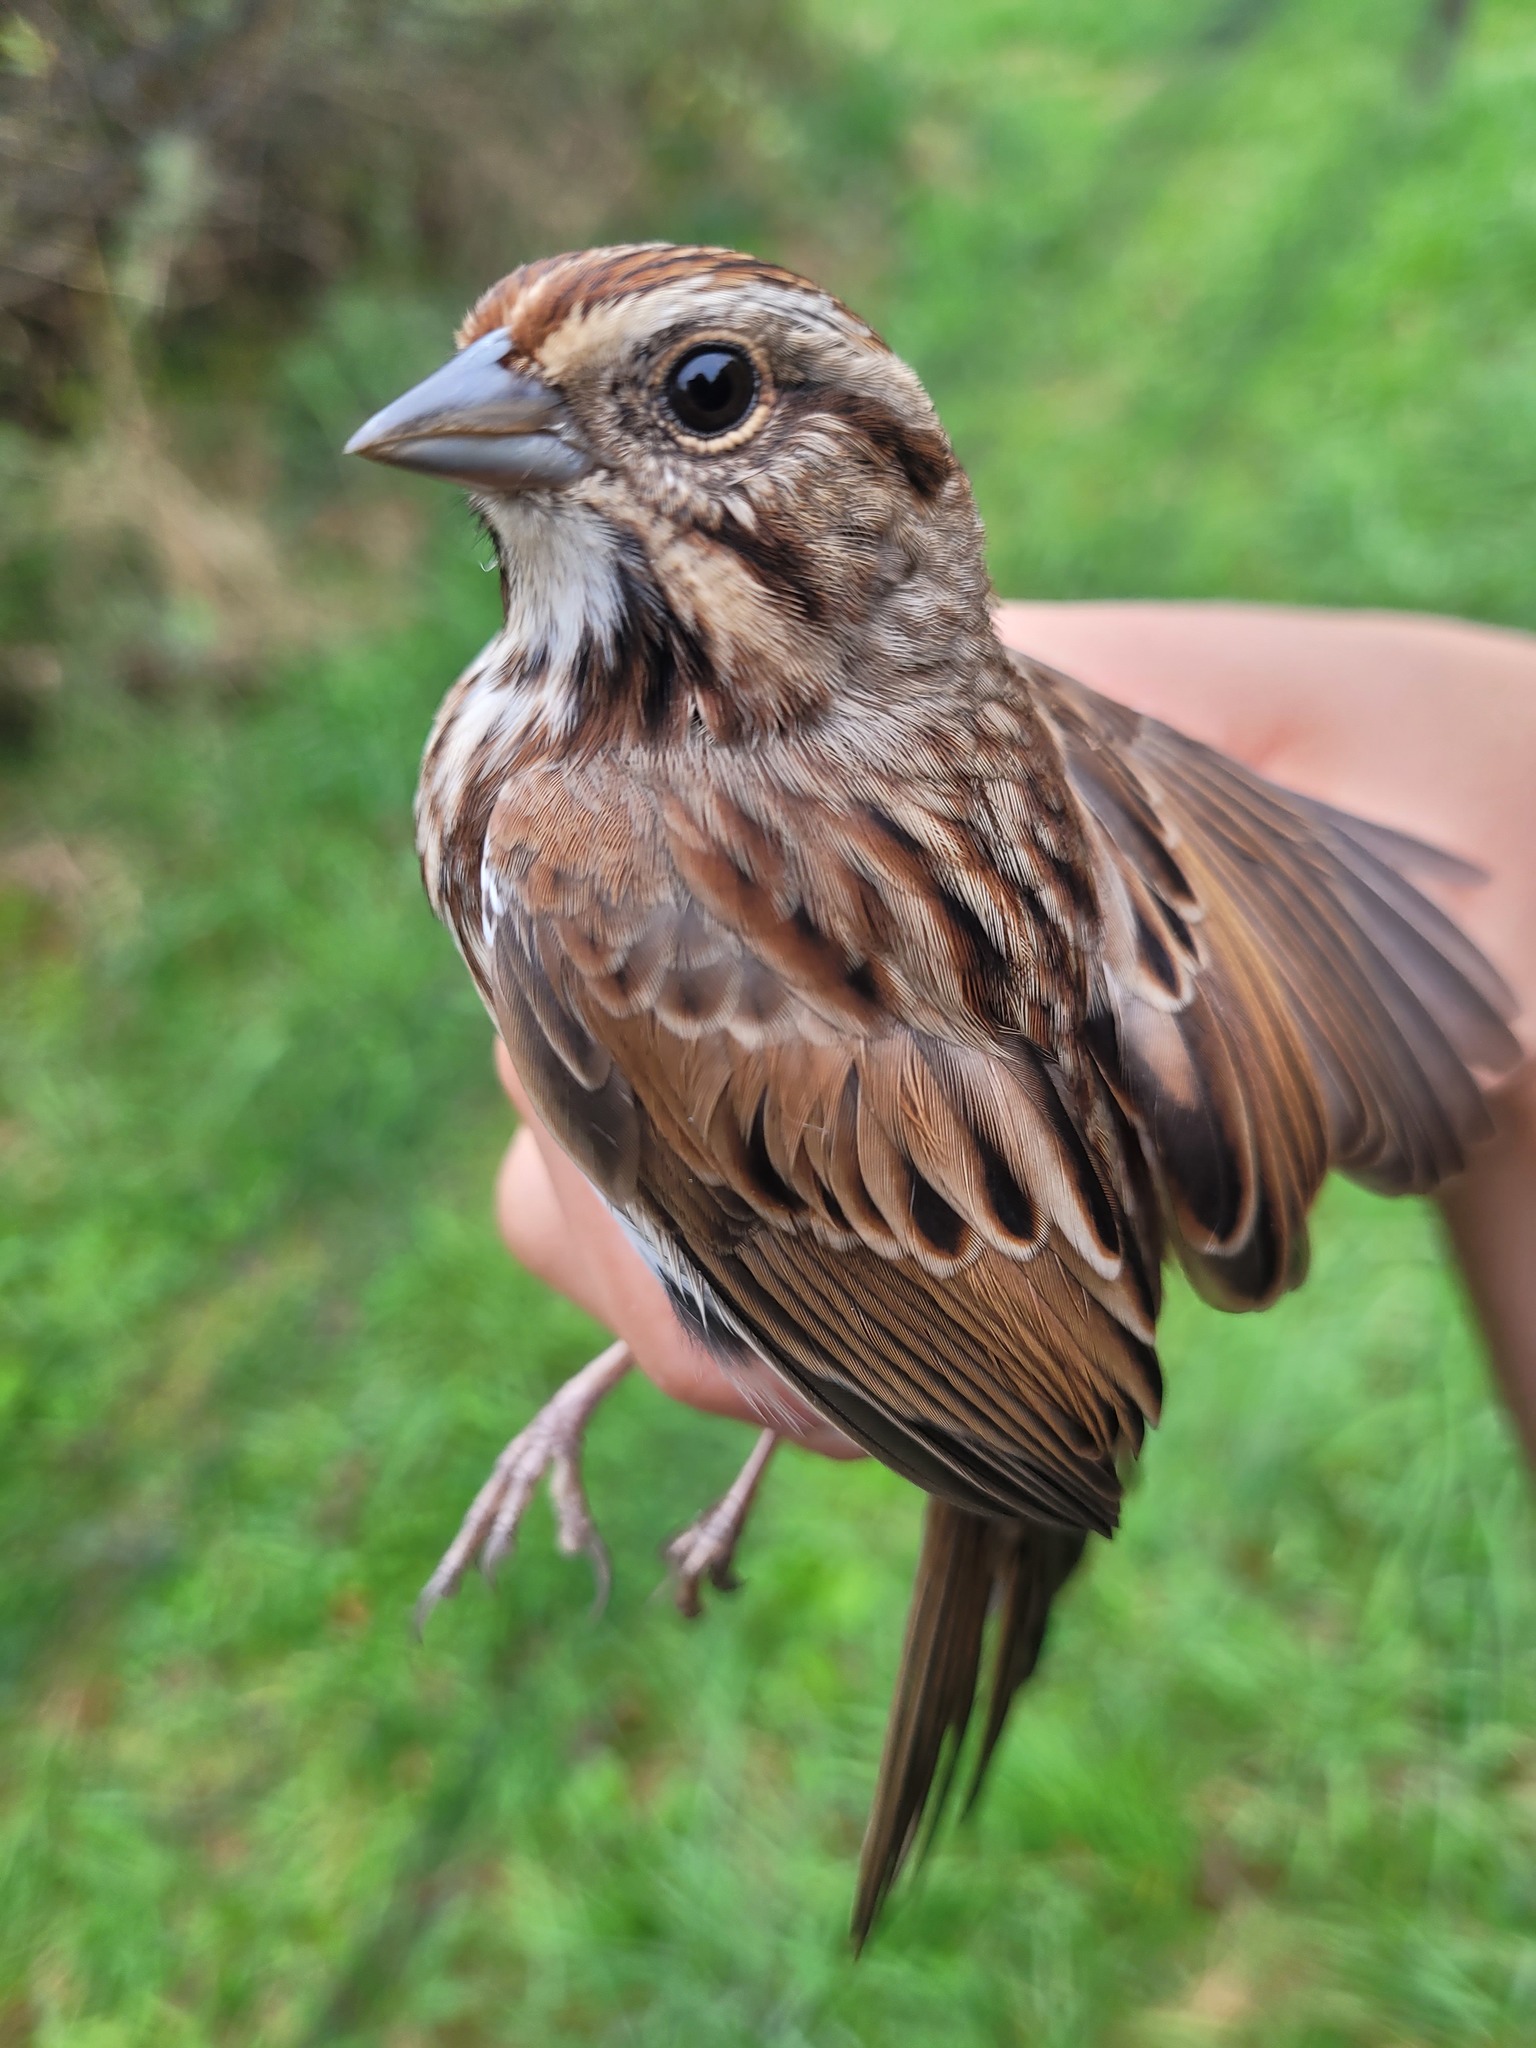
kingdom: Animalia
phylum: Chordata
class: Aves
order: Passeriformes
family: Passerellidae
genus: Melospiza
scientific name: Melospiza melodia
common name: Song sparrow
